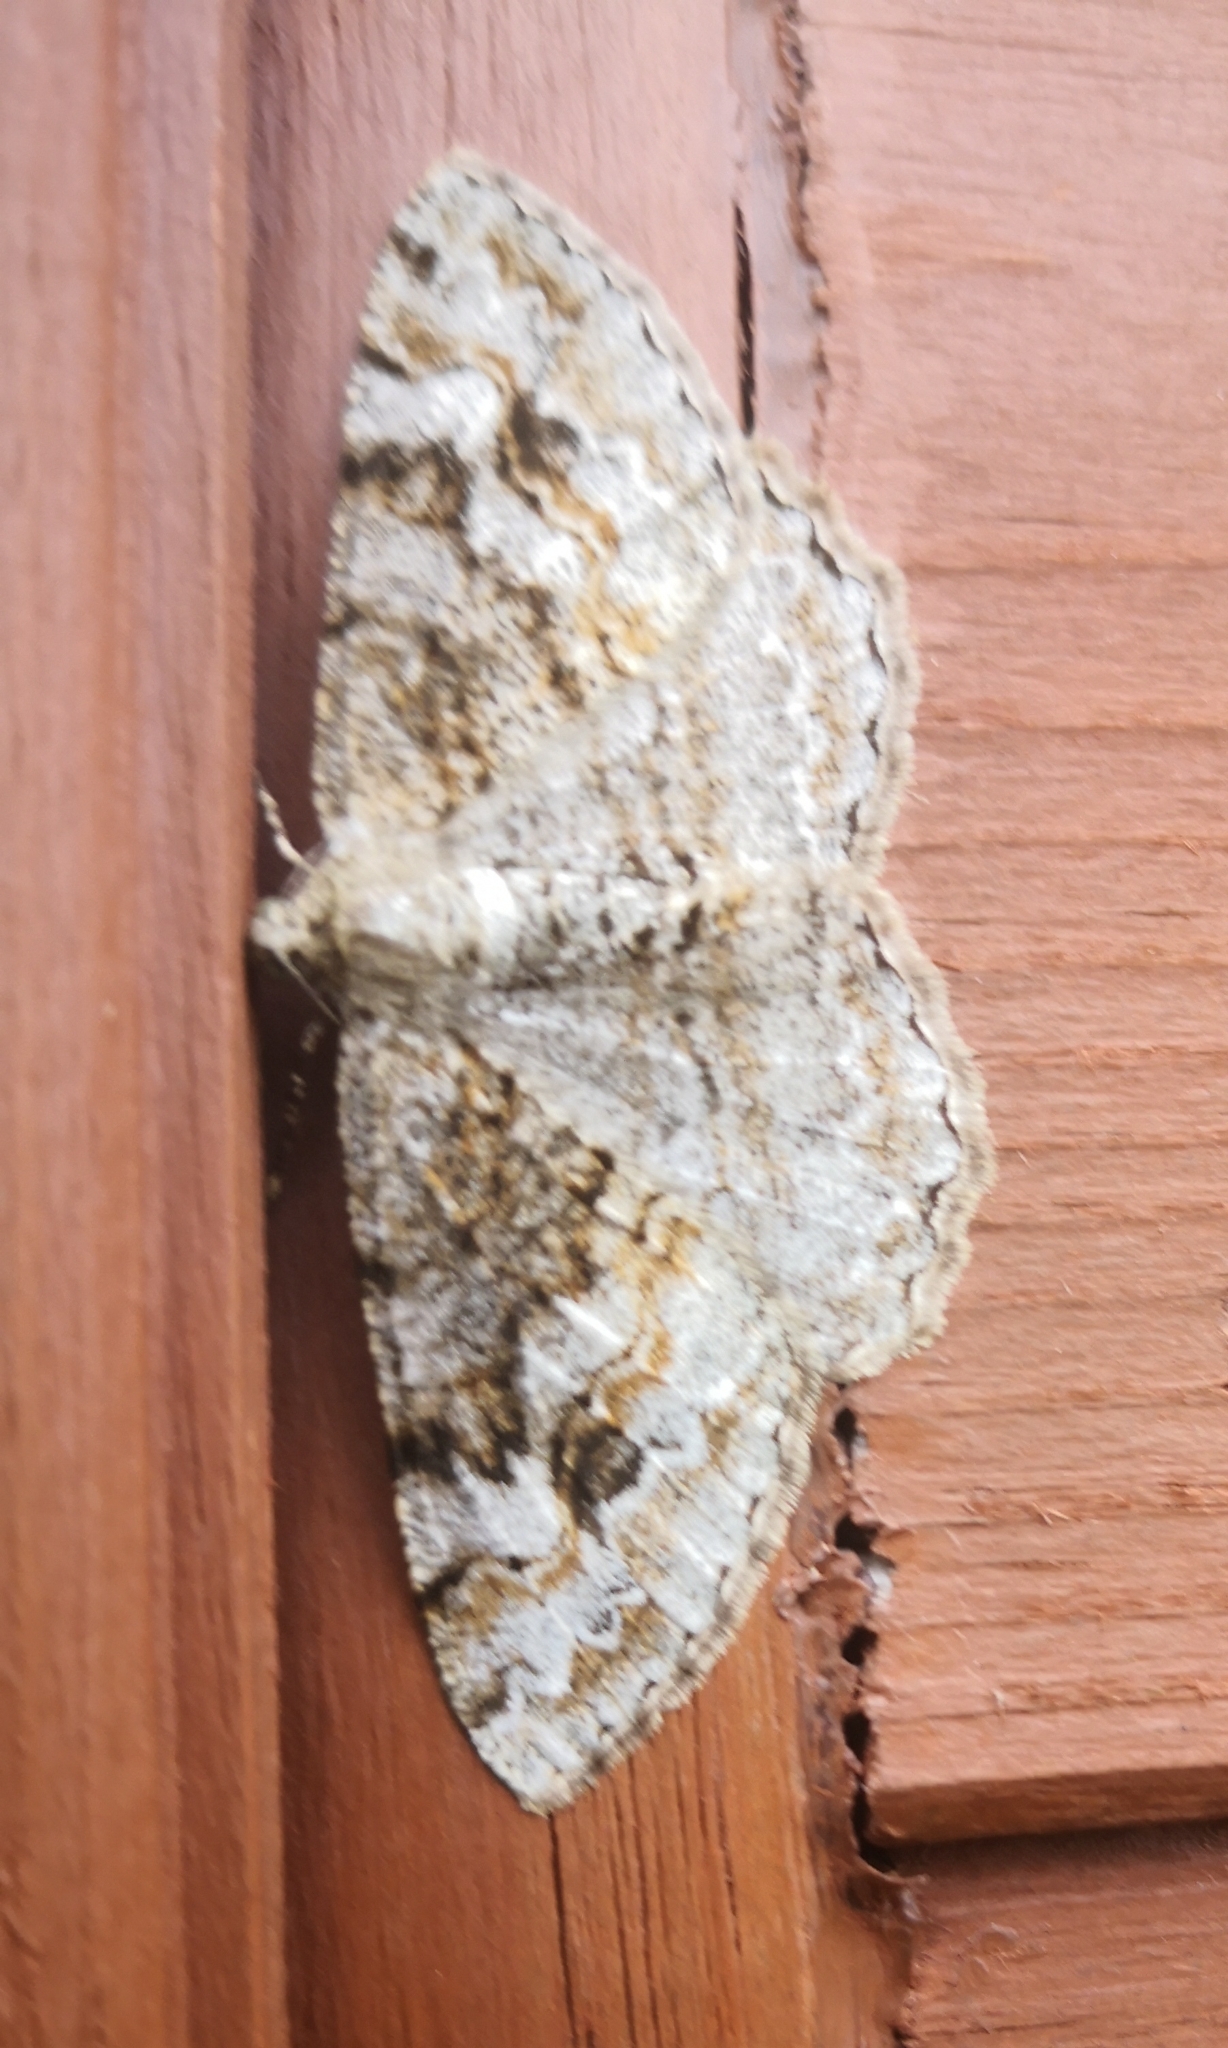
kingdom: Animalia
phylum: Arthropoda
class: Insecta
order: Lepidoptera
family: Geometridae
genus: Alcis
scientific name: Alcis repandata
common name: Mottled beauty
